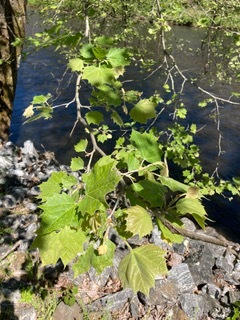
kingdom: Plantae
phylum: Tracheophyta
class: Magnoliopsida
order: Proteales
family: Platanaceae
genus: Platanus
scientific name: Platanus occidentalis
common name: American sycamore
